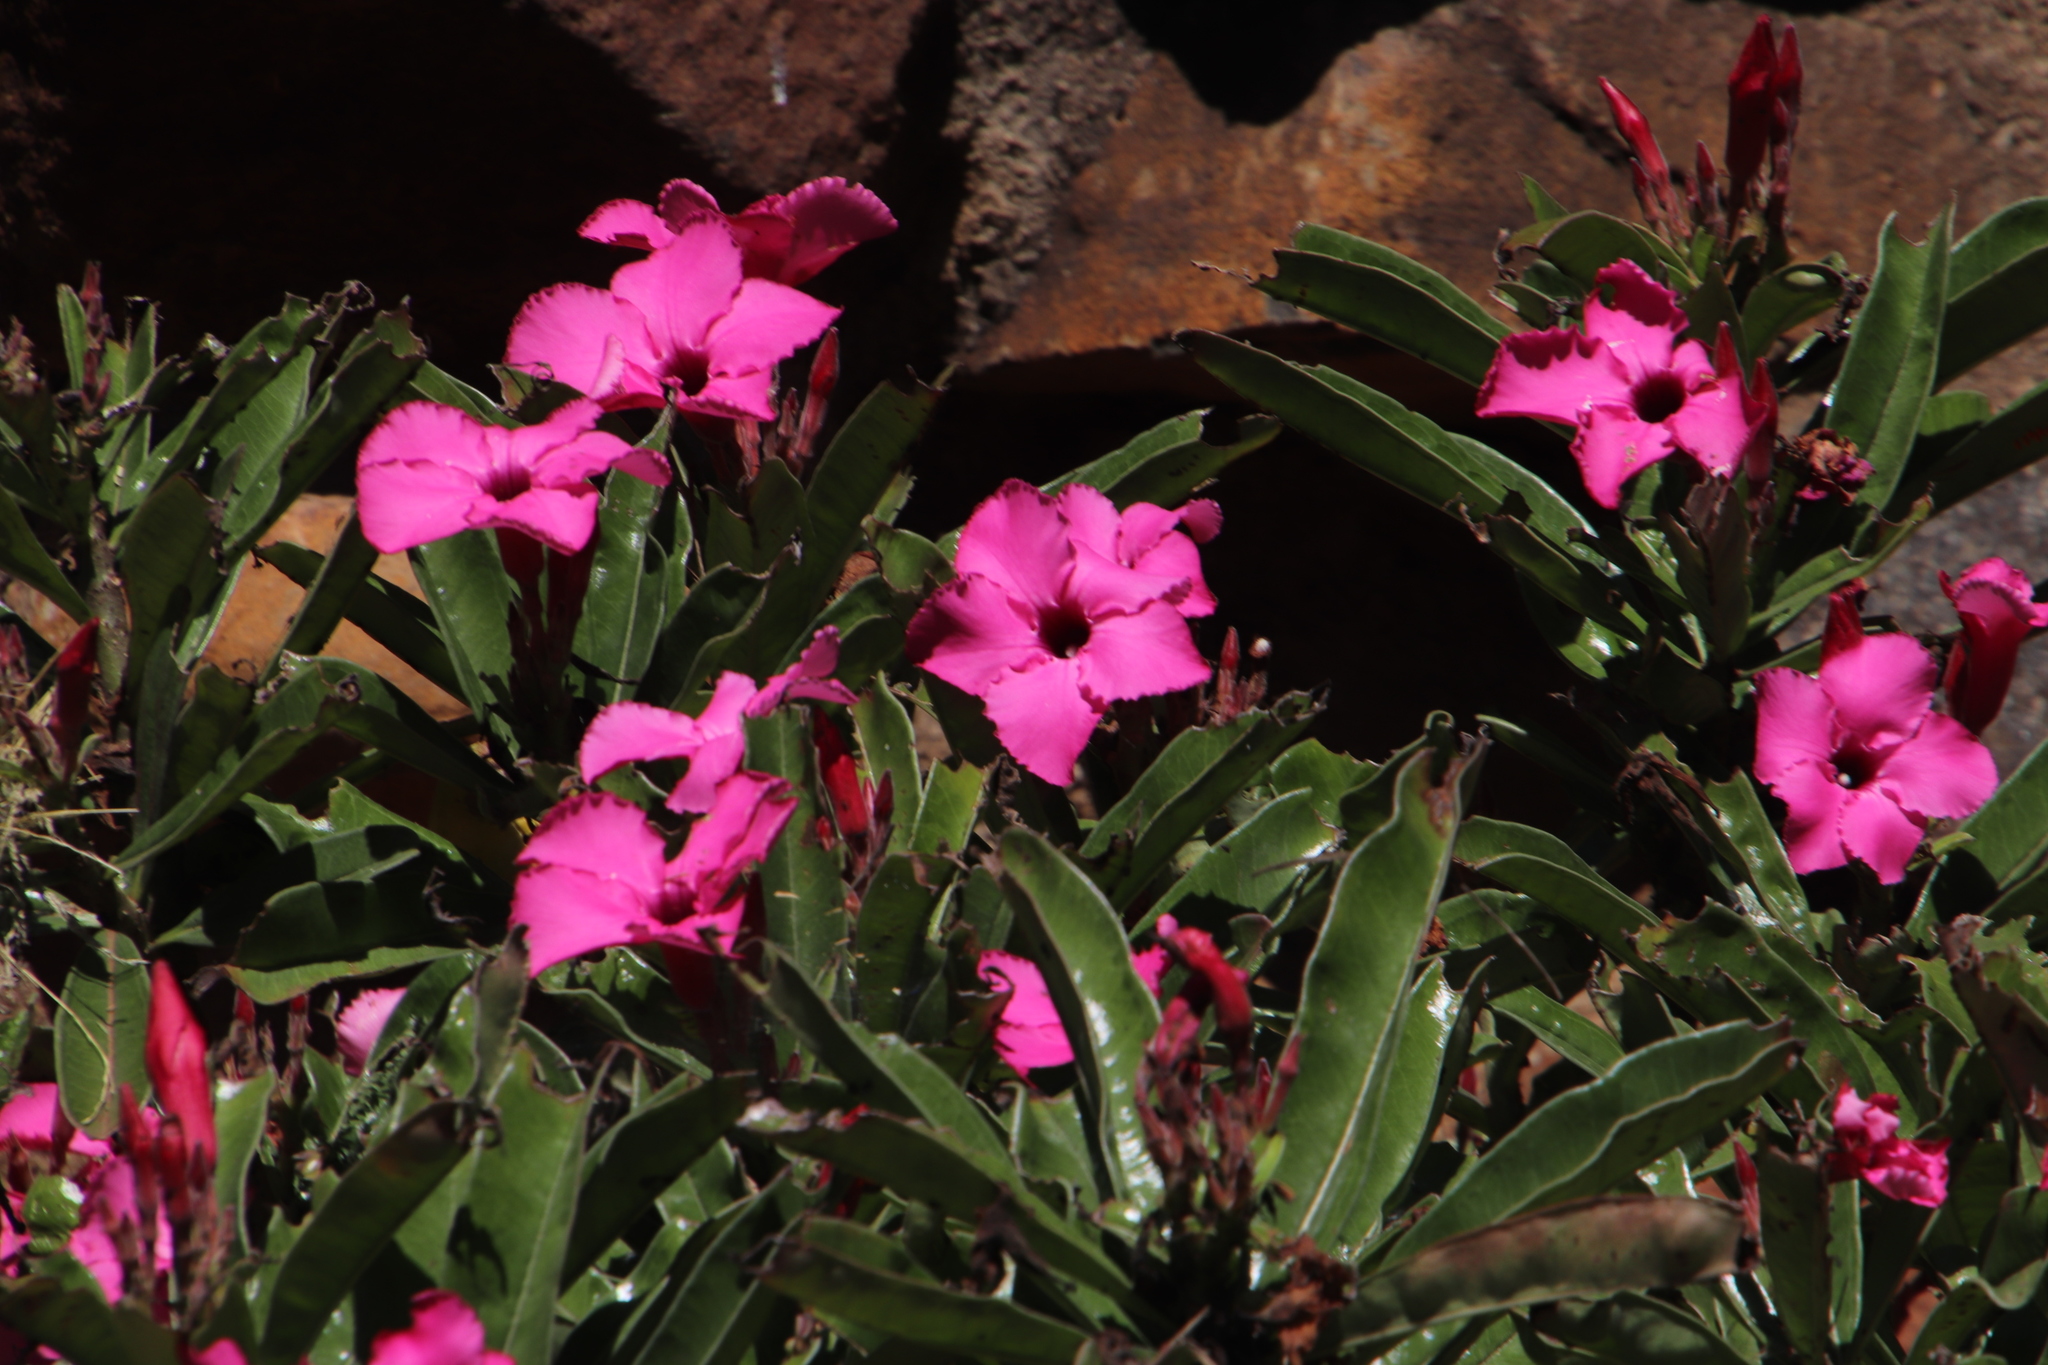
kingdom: Plantae
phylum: Tracheophyta
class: Magnoliopsida
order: Gentianales
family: Apocynaceae
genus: Adenium
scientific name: Adenium obesum
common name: Desert-rose
